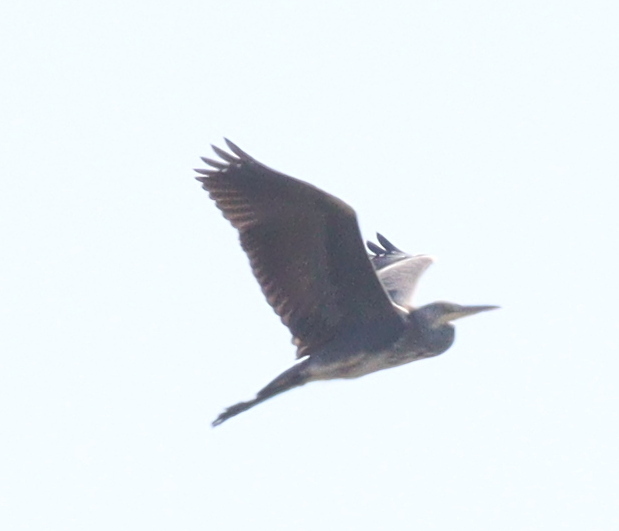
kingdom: Animalia
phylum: Chordata
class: Aves
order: Pelecaniformes
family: Ardeidae
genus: Ardea
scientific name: Ardea cinerea
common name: Grey heron
